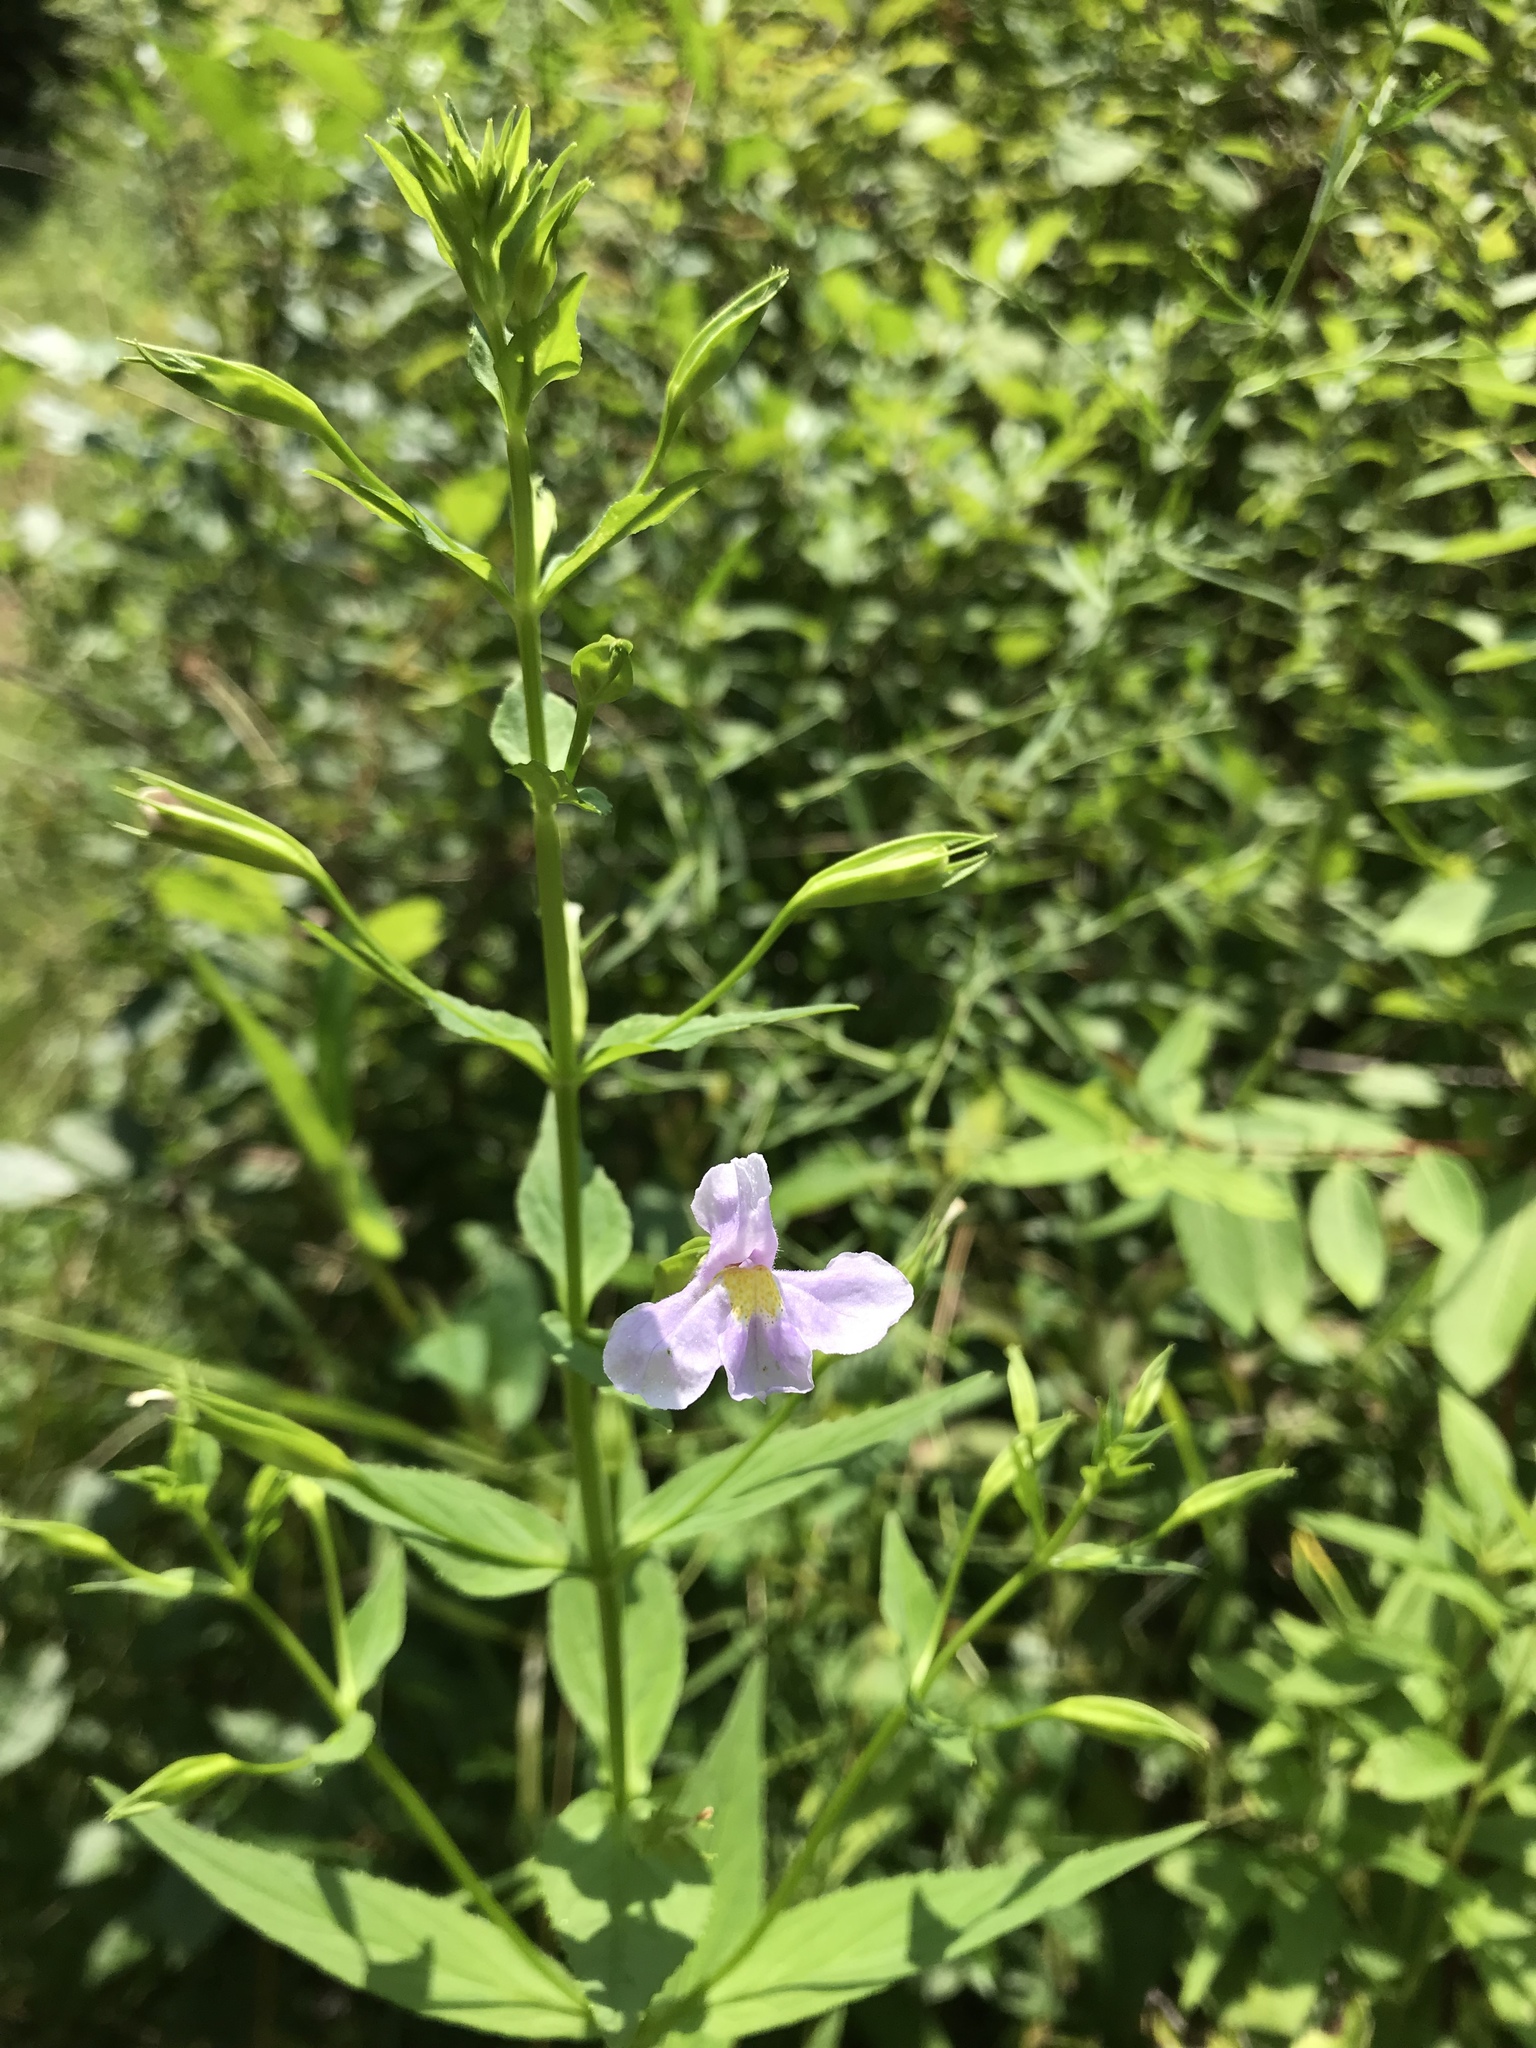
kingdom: Plantae
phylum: Tracheophyta
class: Magnoliopsida
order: Lamiales
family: Phrymaceae
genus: Mimulus
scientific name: Mimulus ringens
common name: Allegheny monkeyflower
